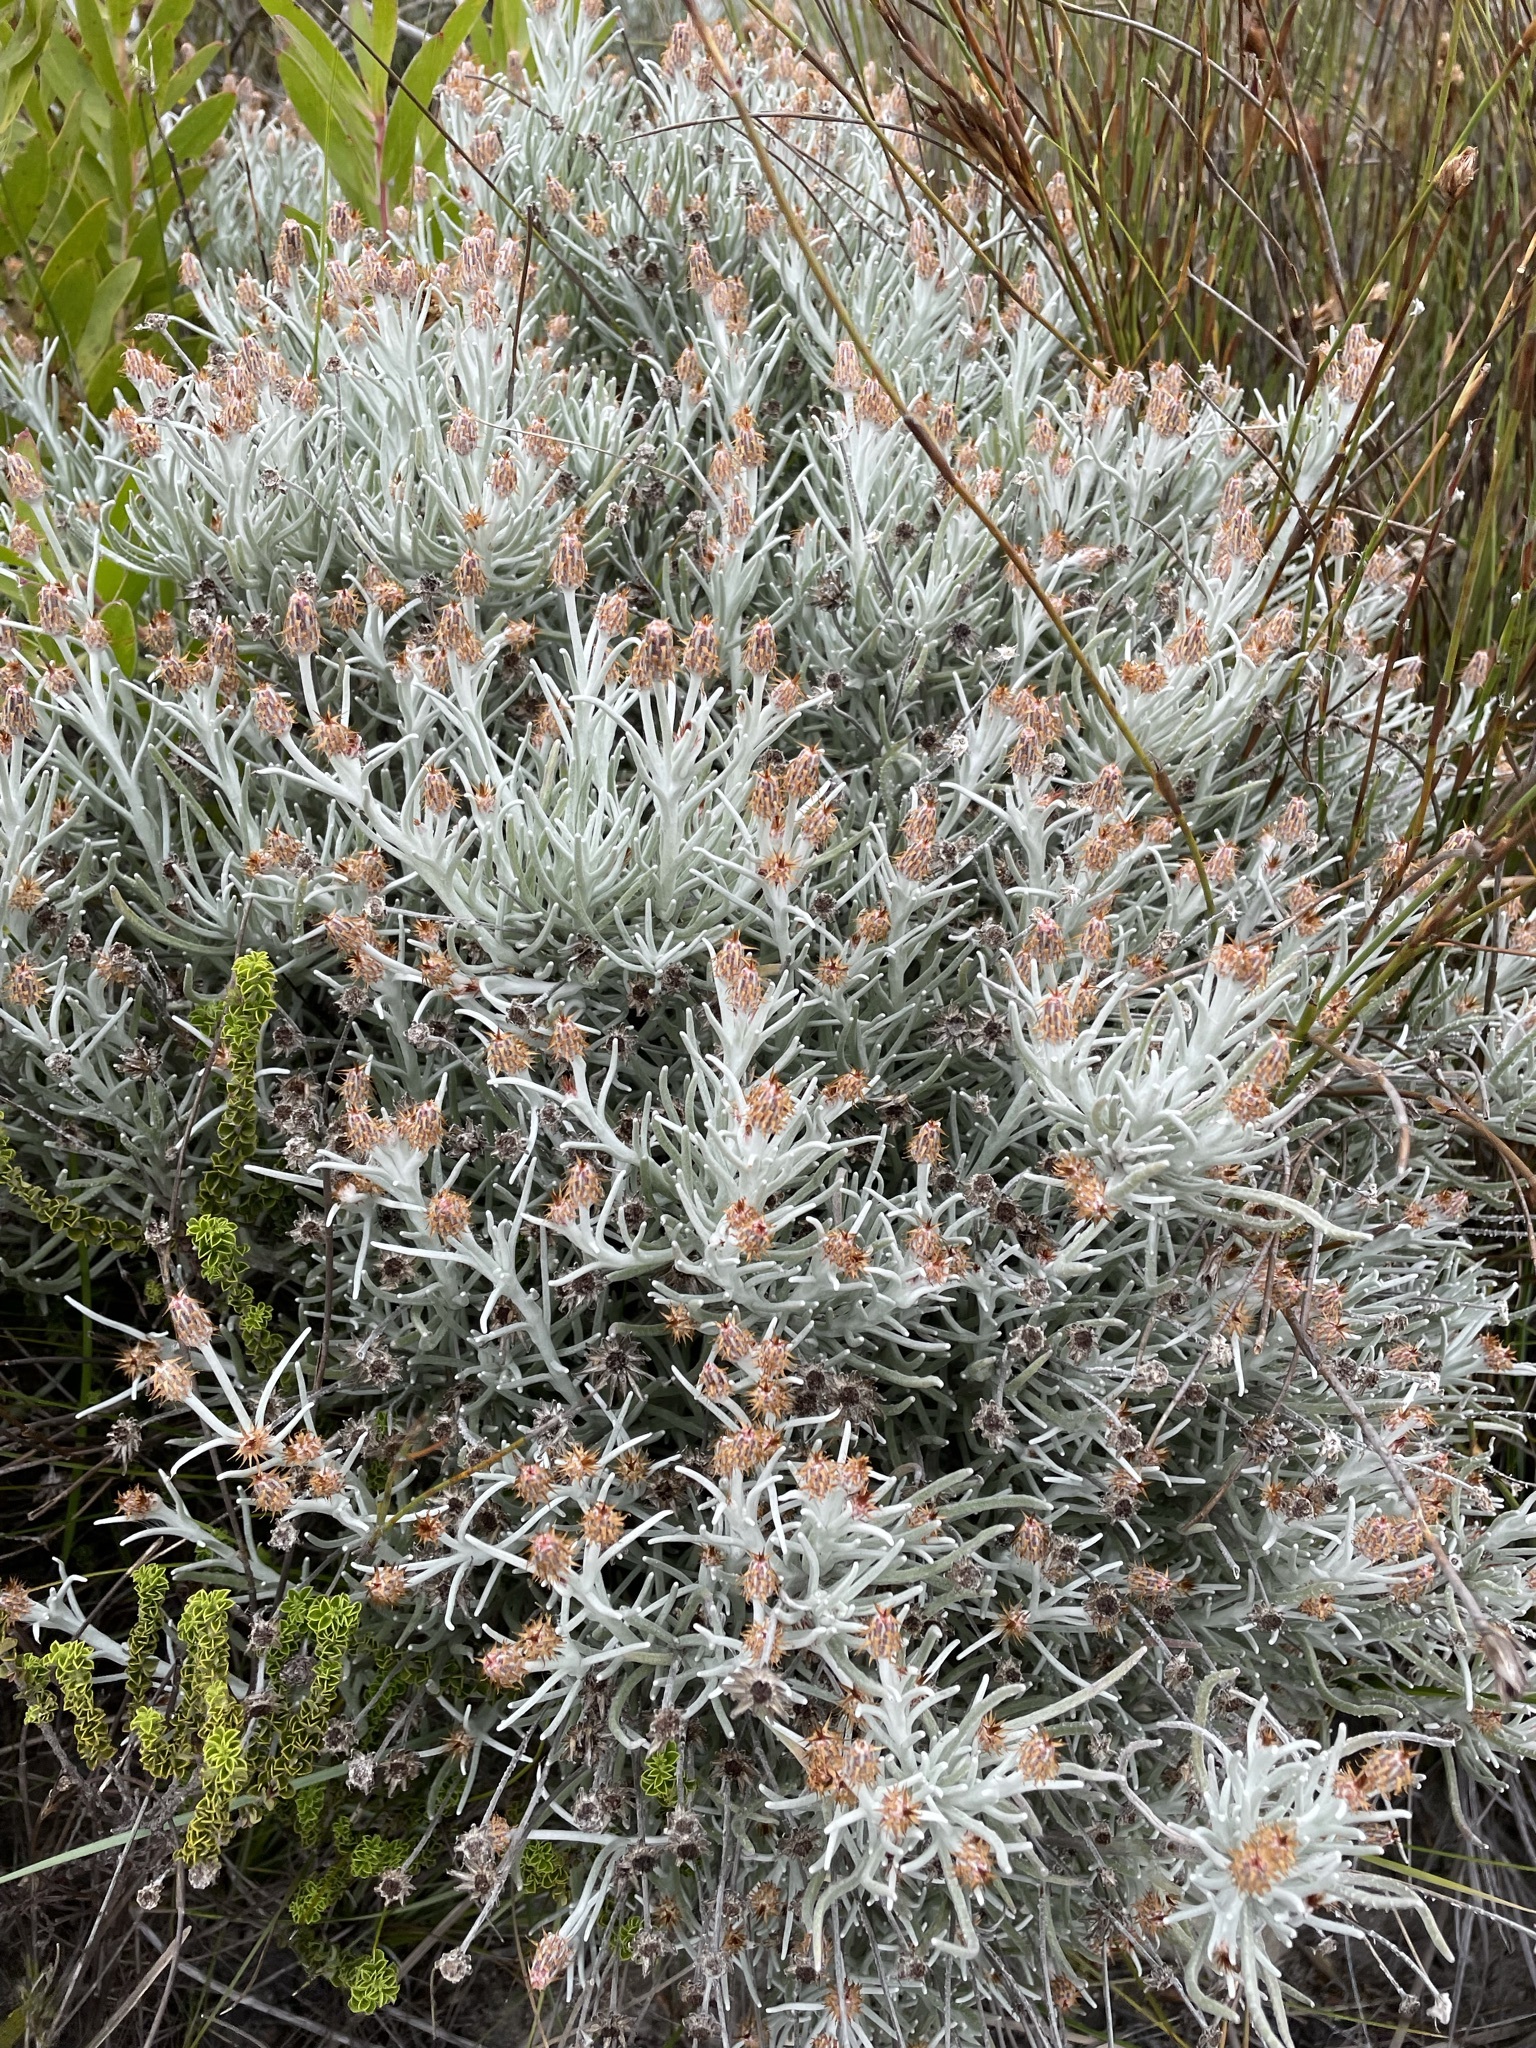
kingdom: Plantae
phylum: Tracheophyta
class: Magnoliopsida
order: Asterales
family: Asteraceae
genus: Syncarpha
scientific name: Syncarpha gnaphaloides
